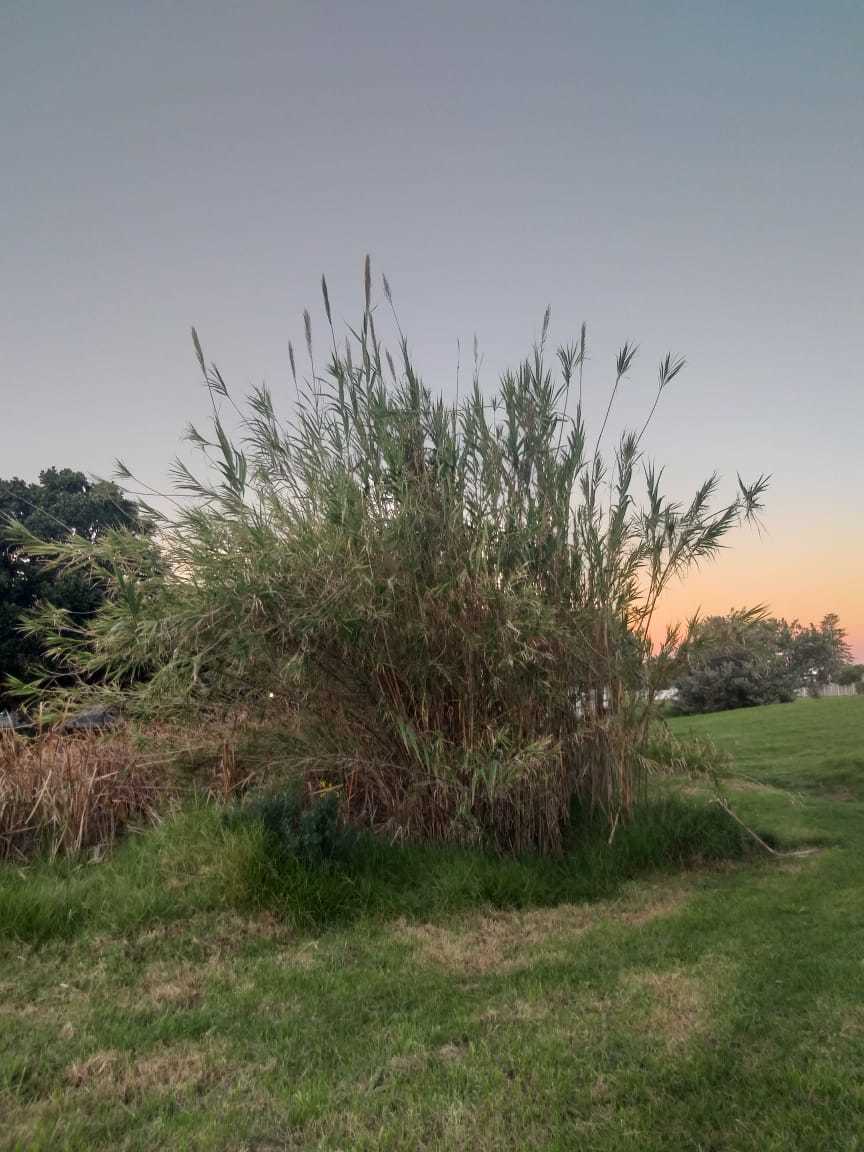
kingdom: Plantae
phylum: Tracheophyta
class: Liliopsida
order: Poales
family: Poaceae
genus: Arundo
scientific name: Arundo donax
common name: Giant reed
